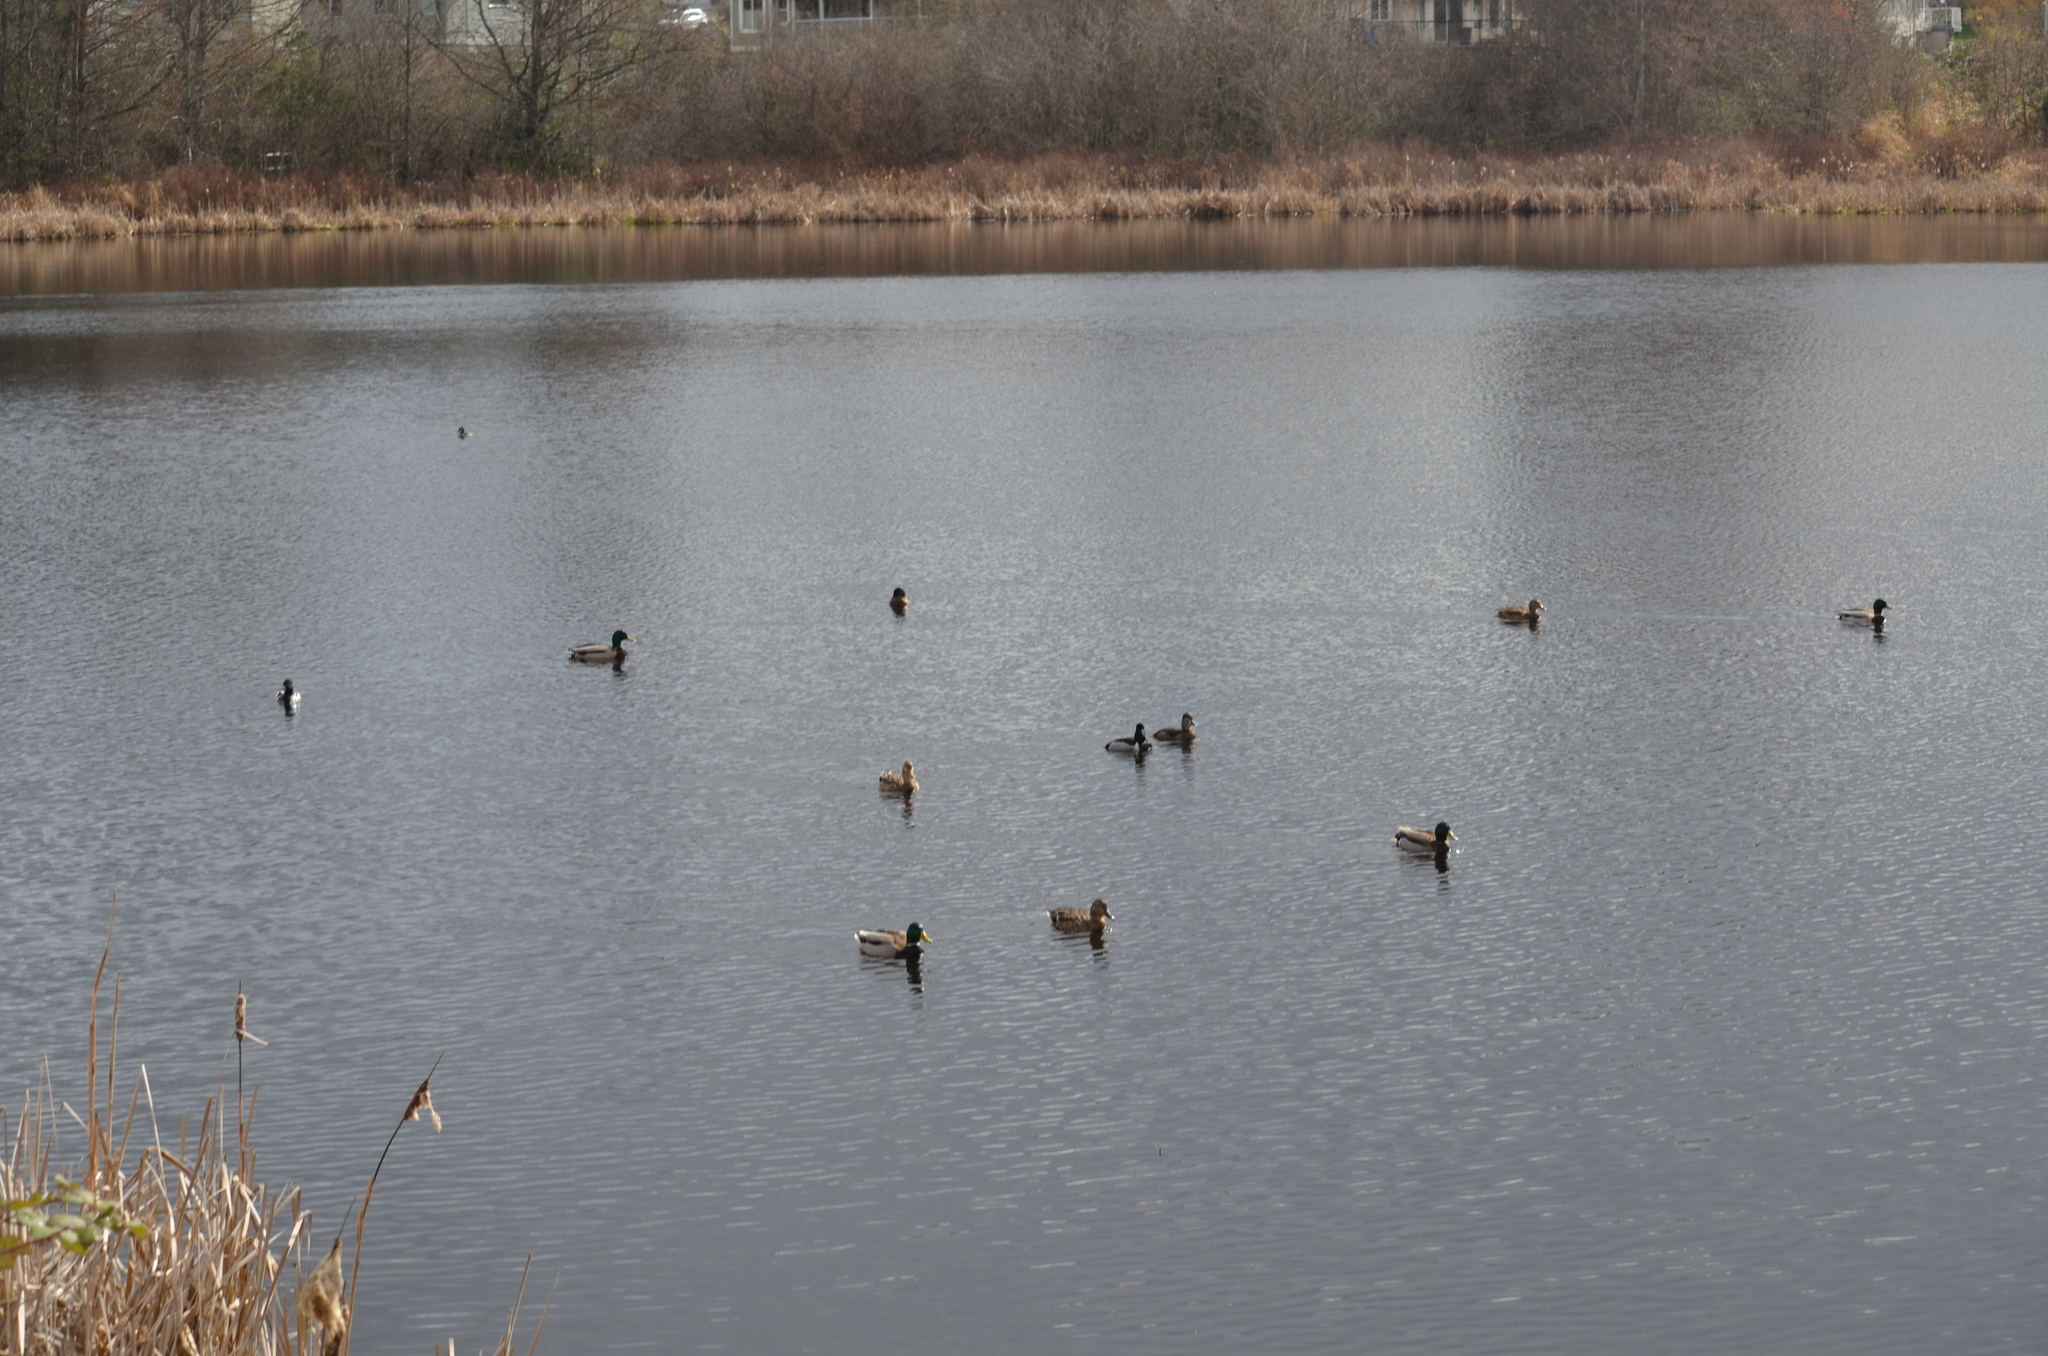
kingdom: Animalia
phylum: Chordata
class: Aves
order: Anseriformes
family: Anatidae
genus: Anas
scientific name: Anas platyrhynchos
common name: Mallard
